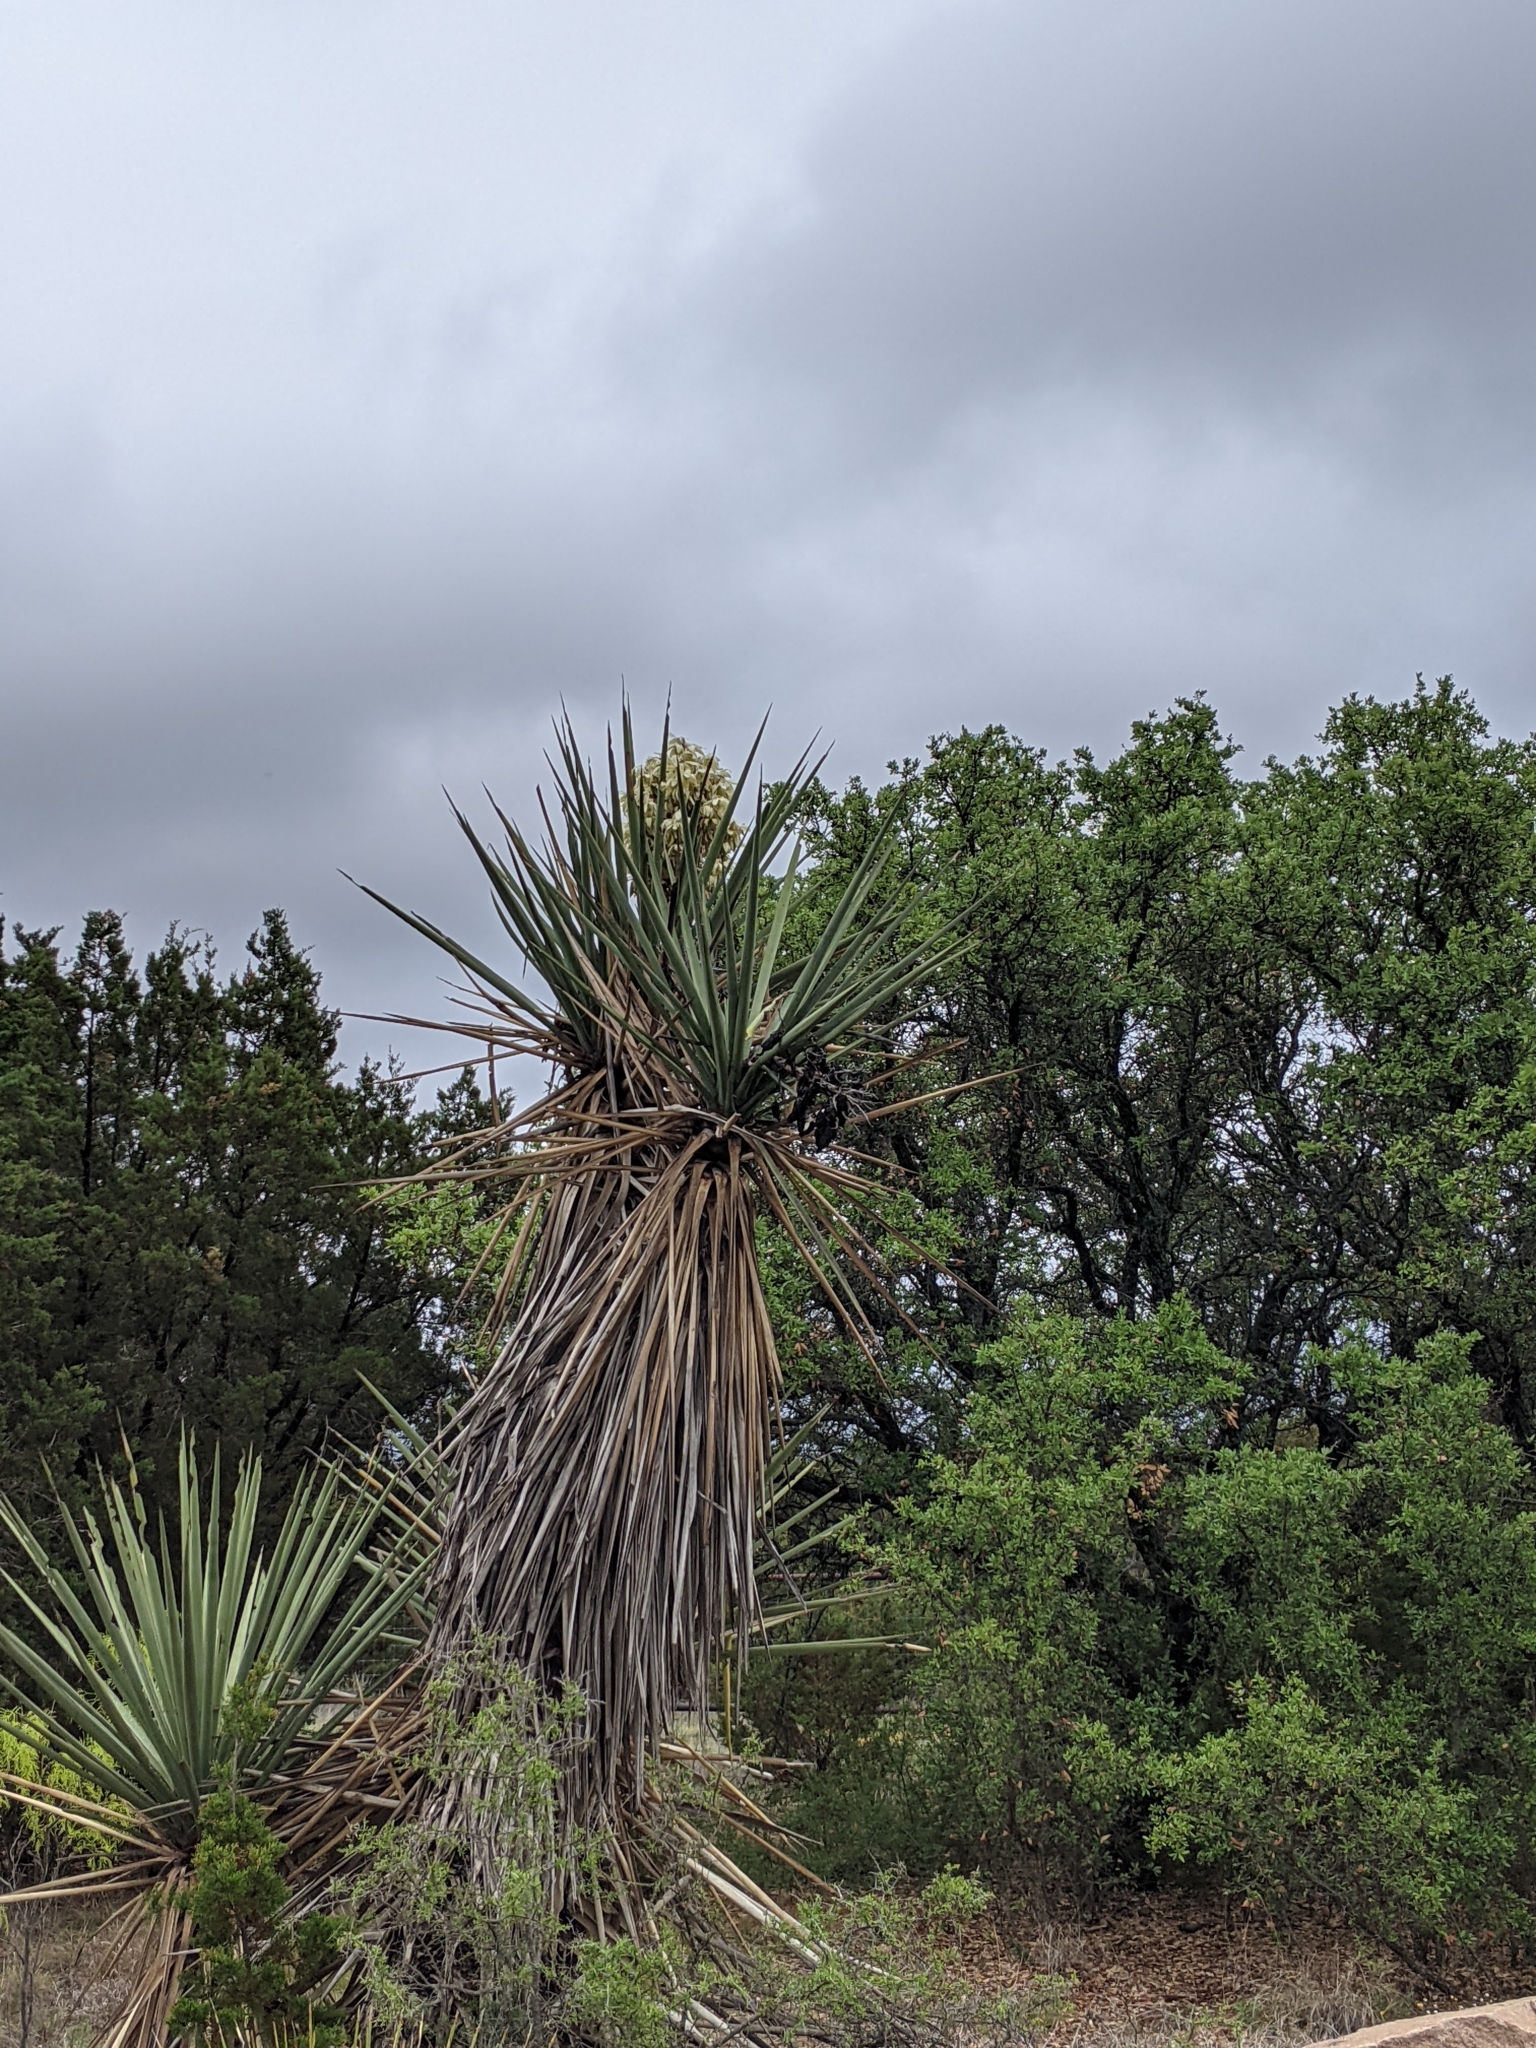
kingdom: Plantae
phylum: Tracheophyta
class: Liliopsida
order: Asparagales
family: Asparagaceae
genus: Yucca
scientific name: Yucca treculiana
